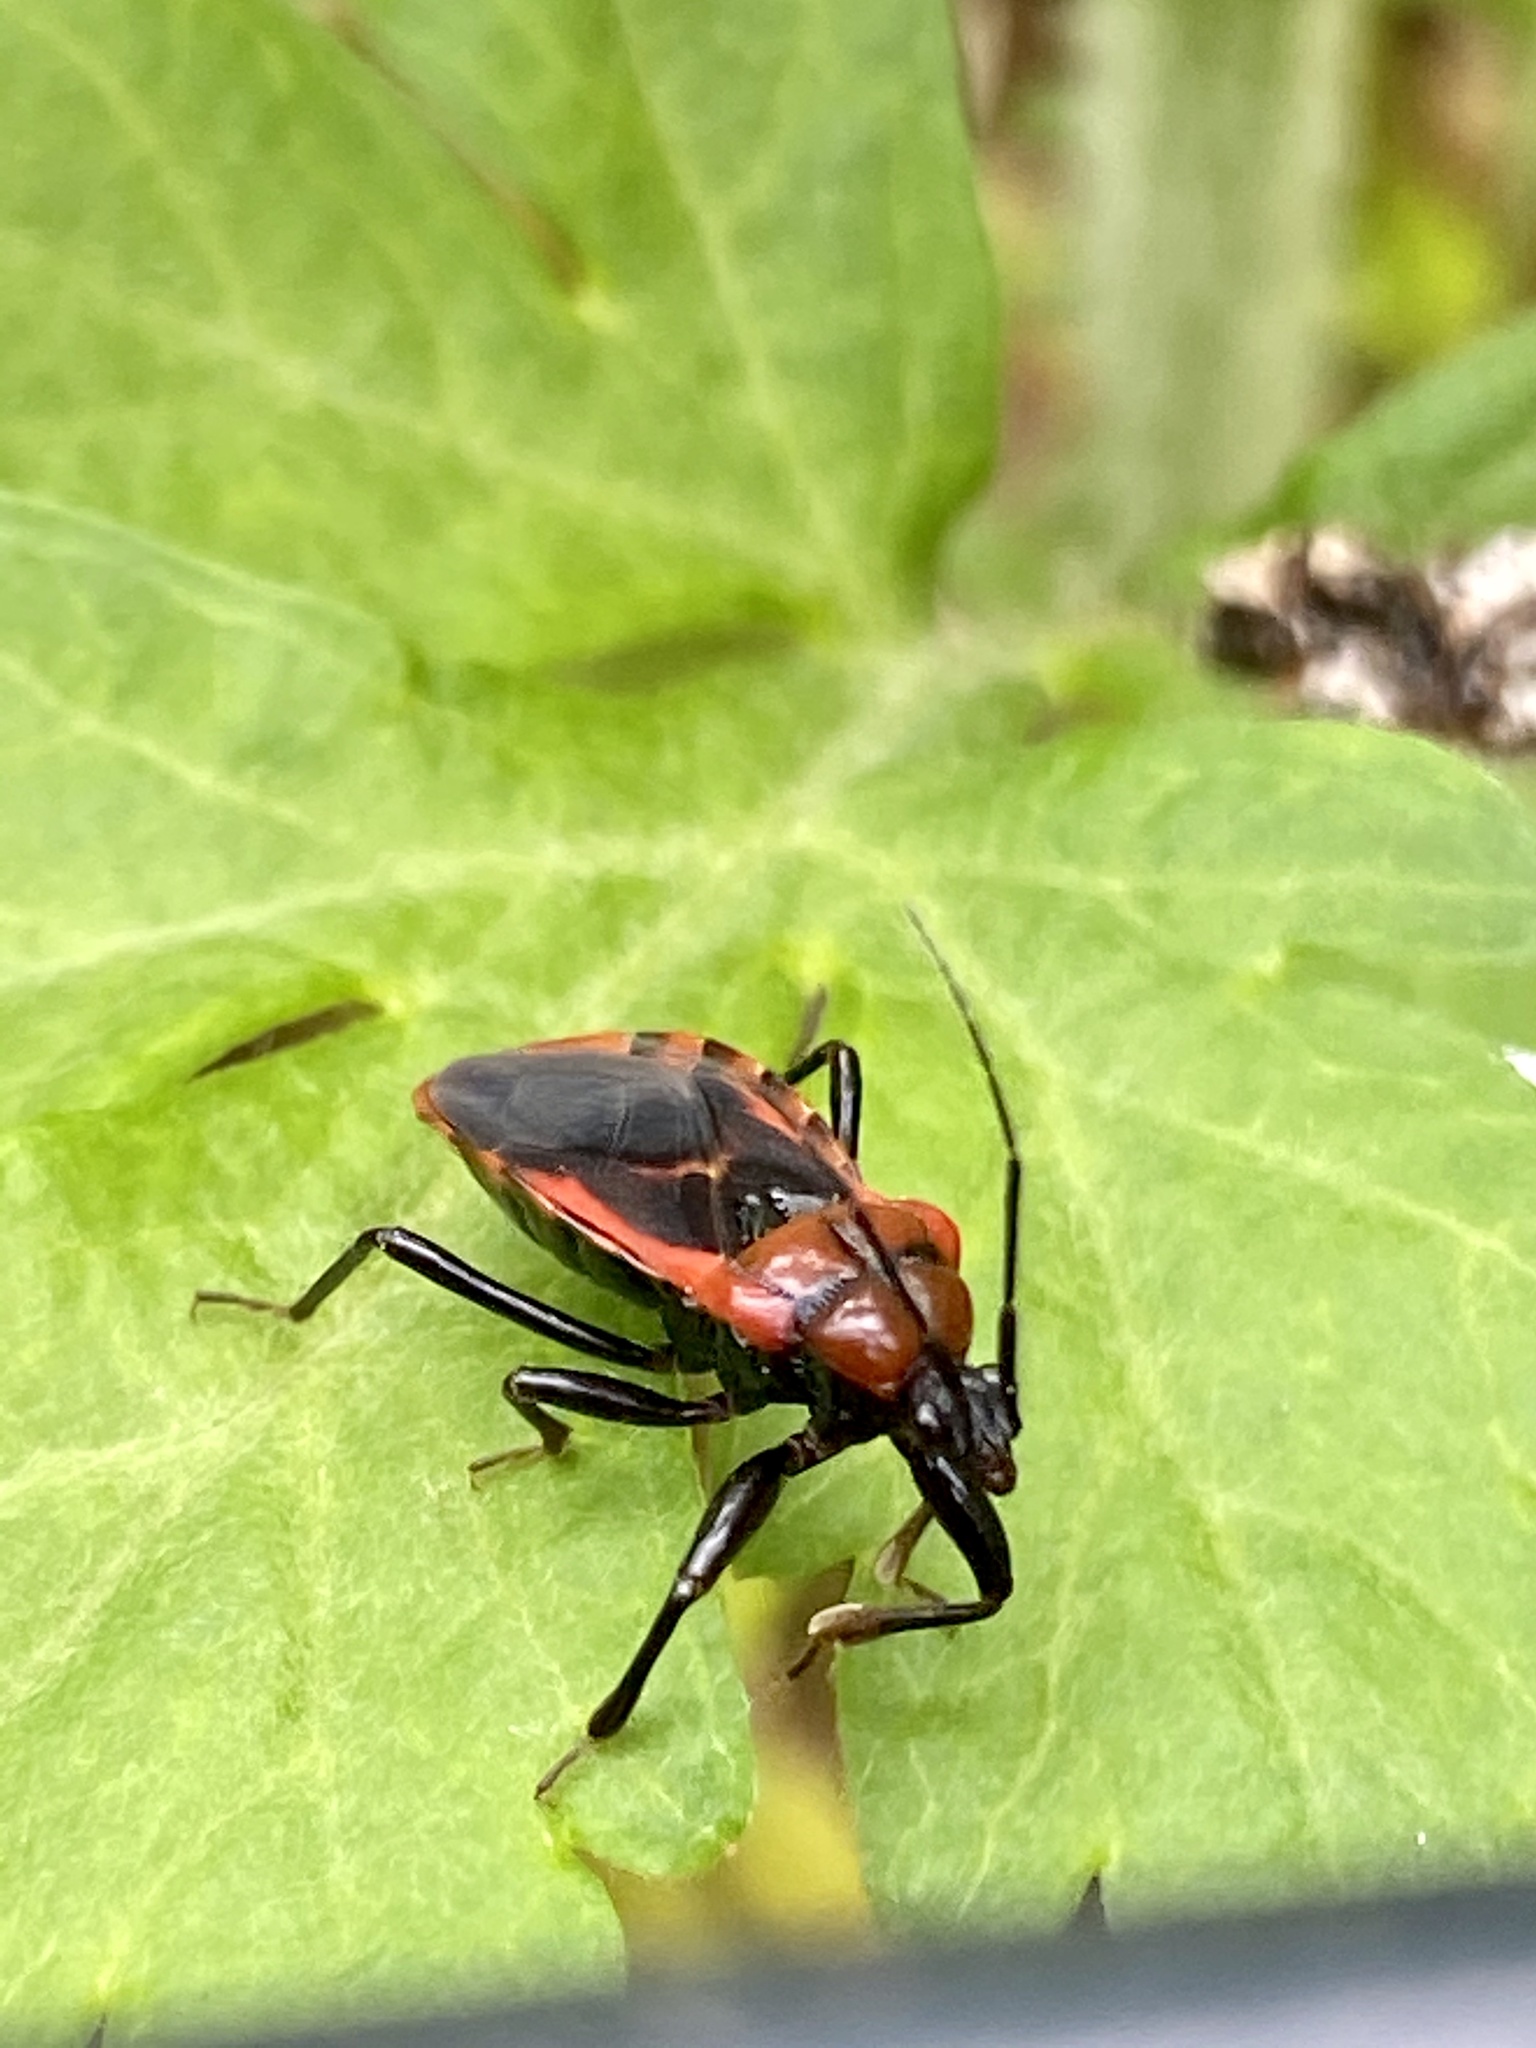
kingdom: Animalia
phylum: Arthropoda
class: Insecta
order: Hemiptera
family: Reduviidae
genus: Haematoloecha
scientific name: Haematoloecha nigrorufa
